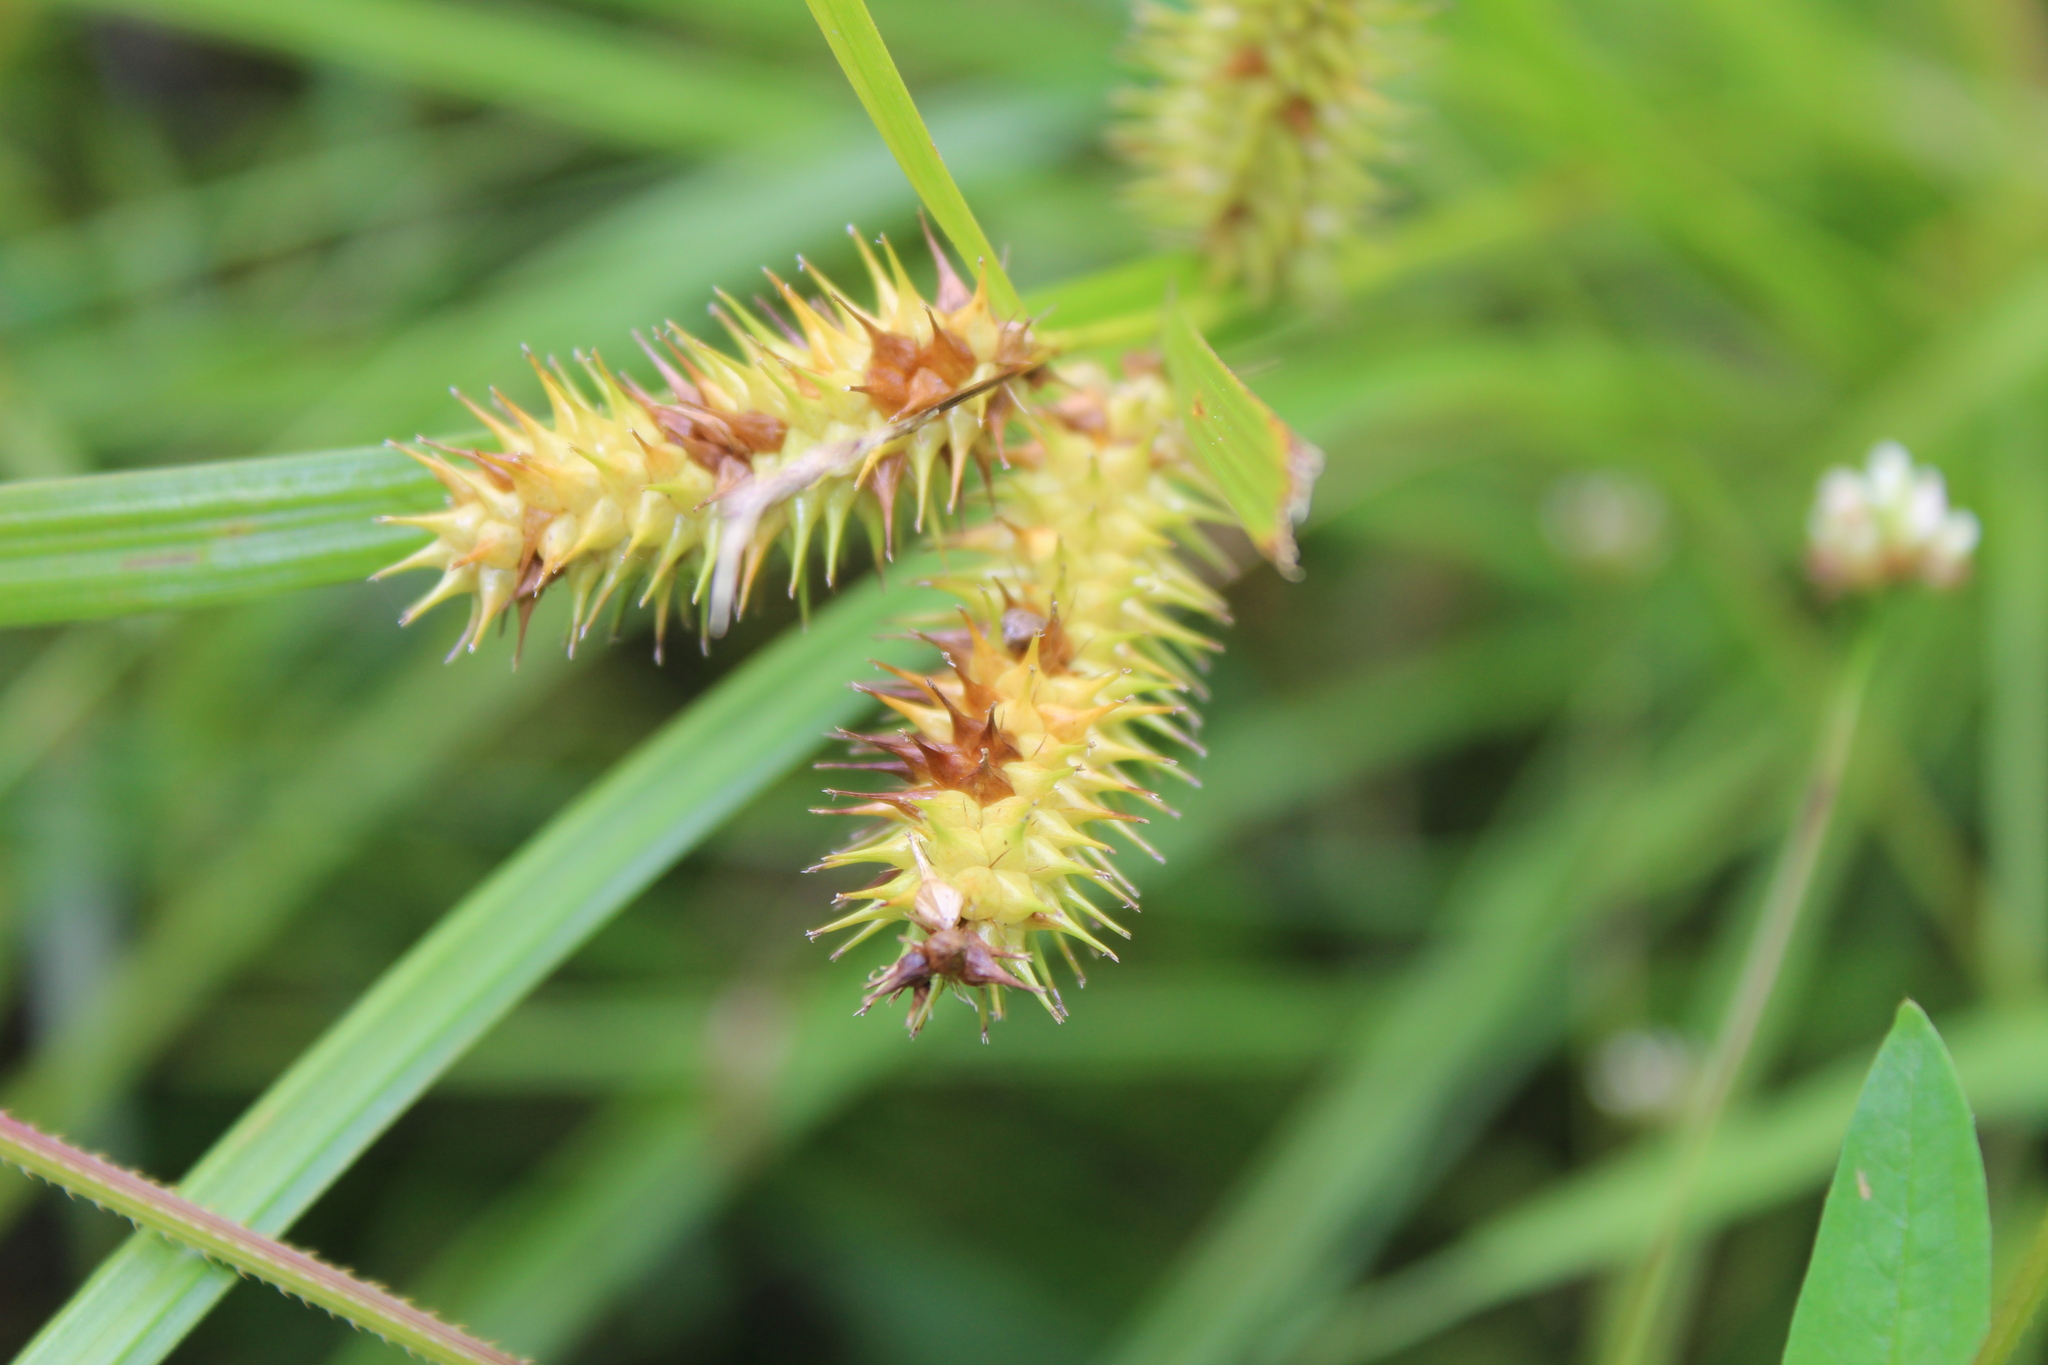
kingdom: Plantae
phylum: Tracheophyta
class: Liliopsida
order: Poales
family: Cyperaceae
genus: Carex
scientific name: Carex lurida
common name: Sallow sedge
